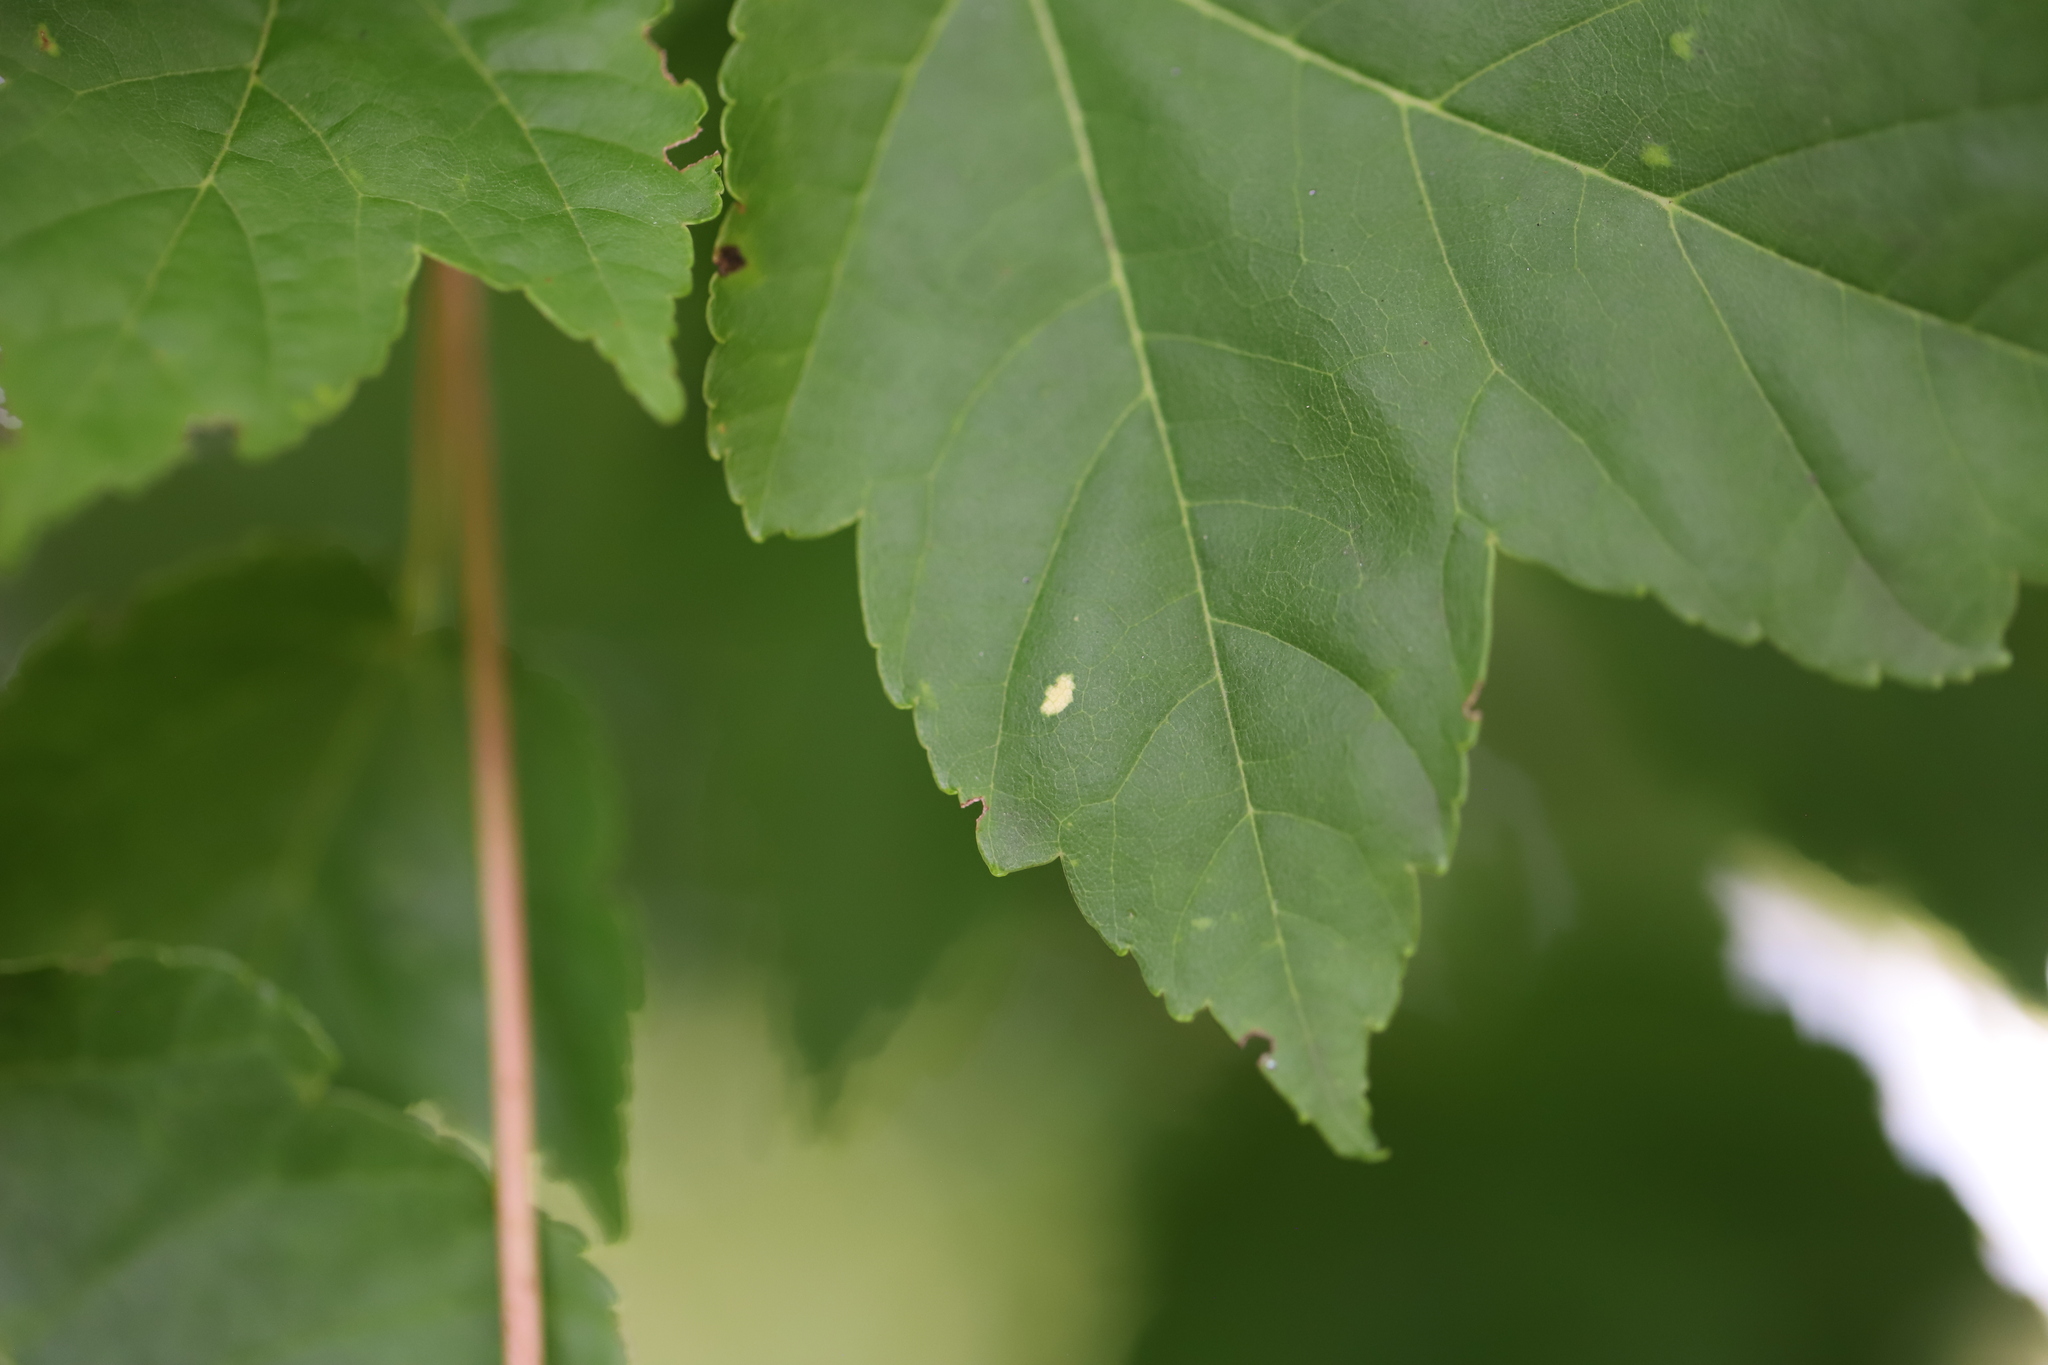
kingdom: Plantae
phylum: Tracheophyta
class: Magnoliopsida
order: Sapindales
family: Sapindaceae
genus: Acer
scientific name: Acer negundo
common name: Ashleaf maple
